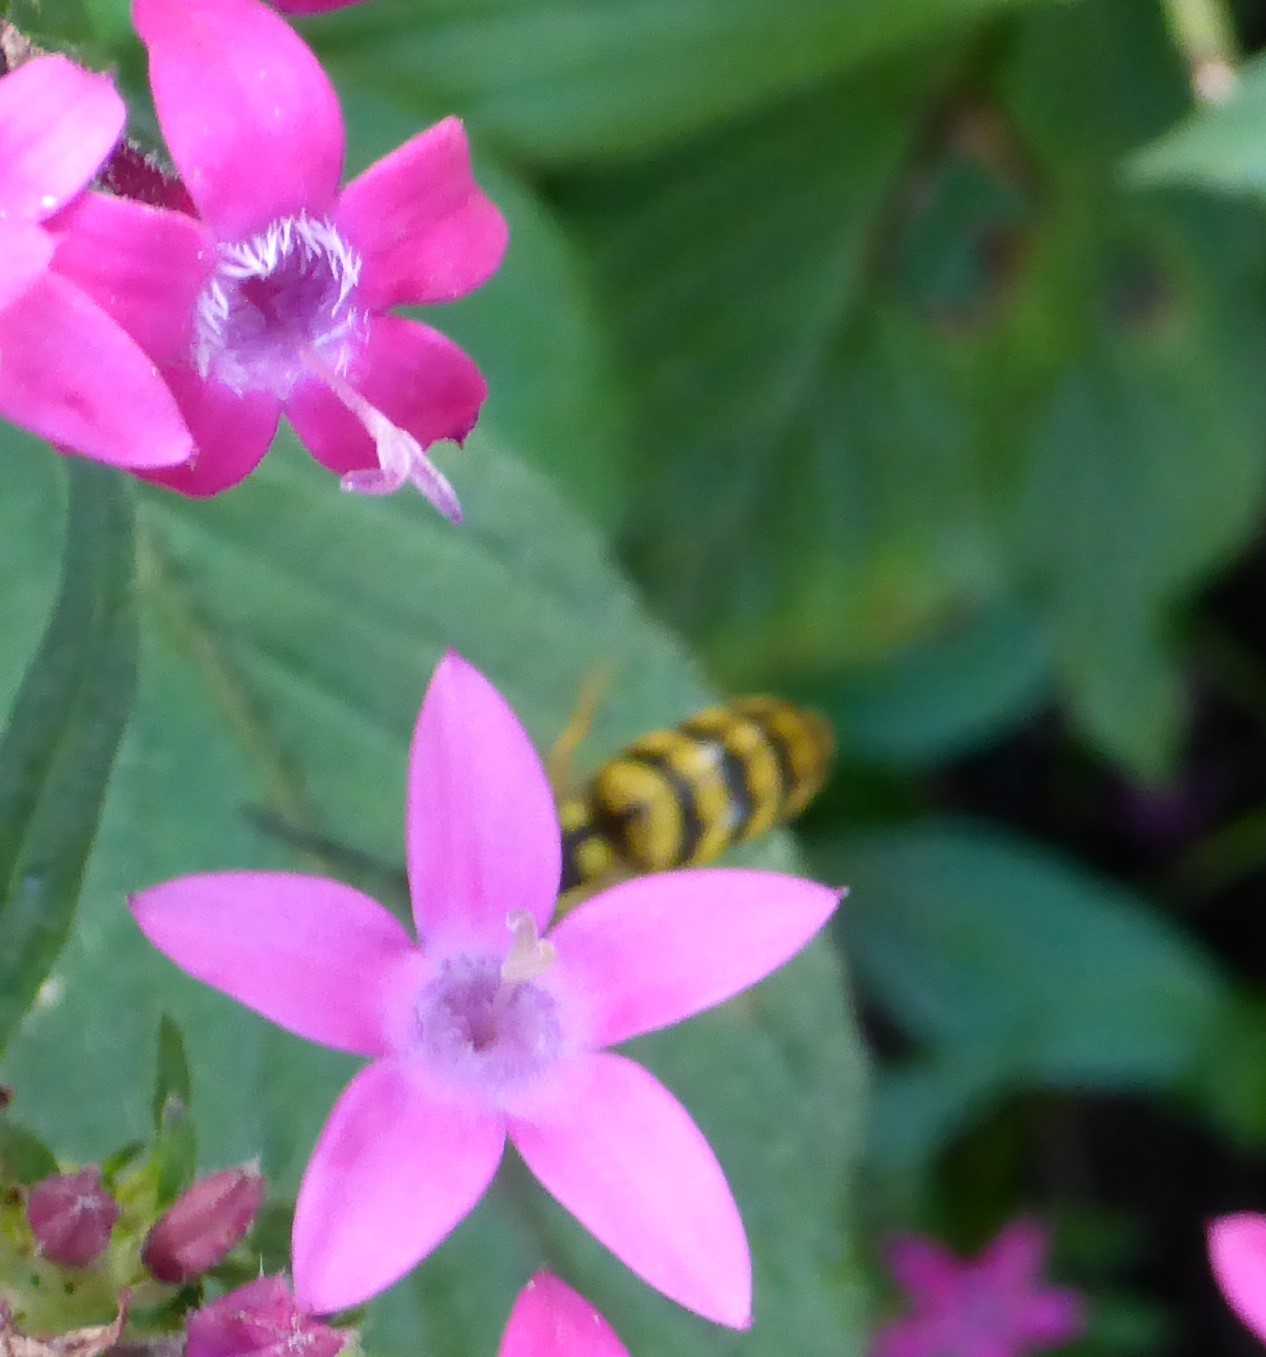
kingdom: Animalia
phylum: Arthropoda
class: Insecta
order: Hymenoptera
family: Vespidae
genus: Vespula
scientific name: Vespula maculifrons
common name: Eastern yellowjacket
